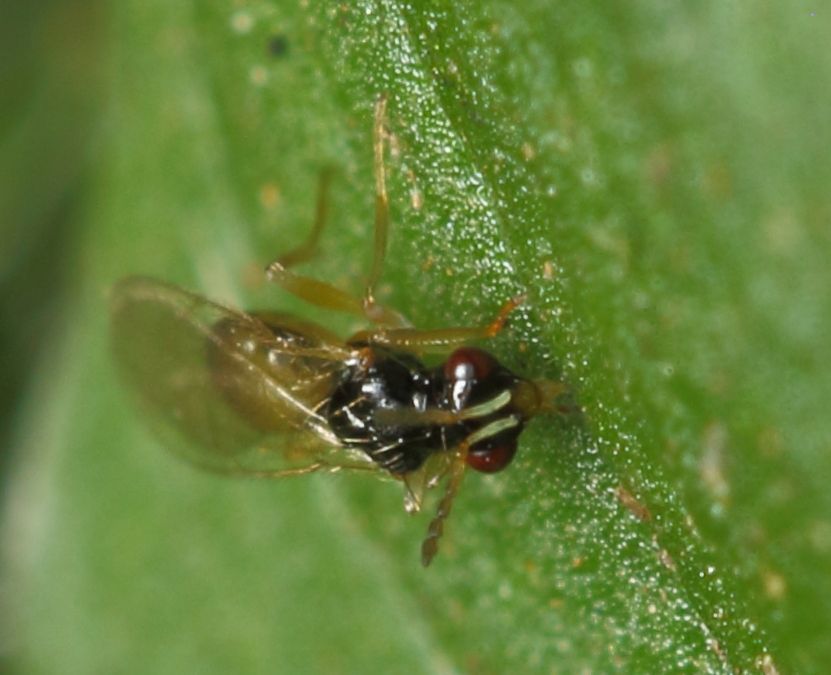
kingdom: Animalia
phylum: Arthropoda
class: Insecta
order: Hymenoptera
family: Eulophidae
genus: Euplectrus
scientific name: Euplectrus
